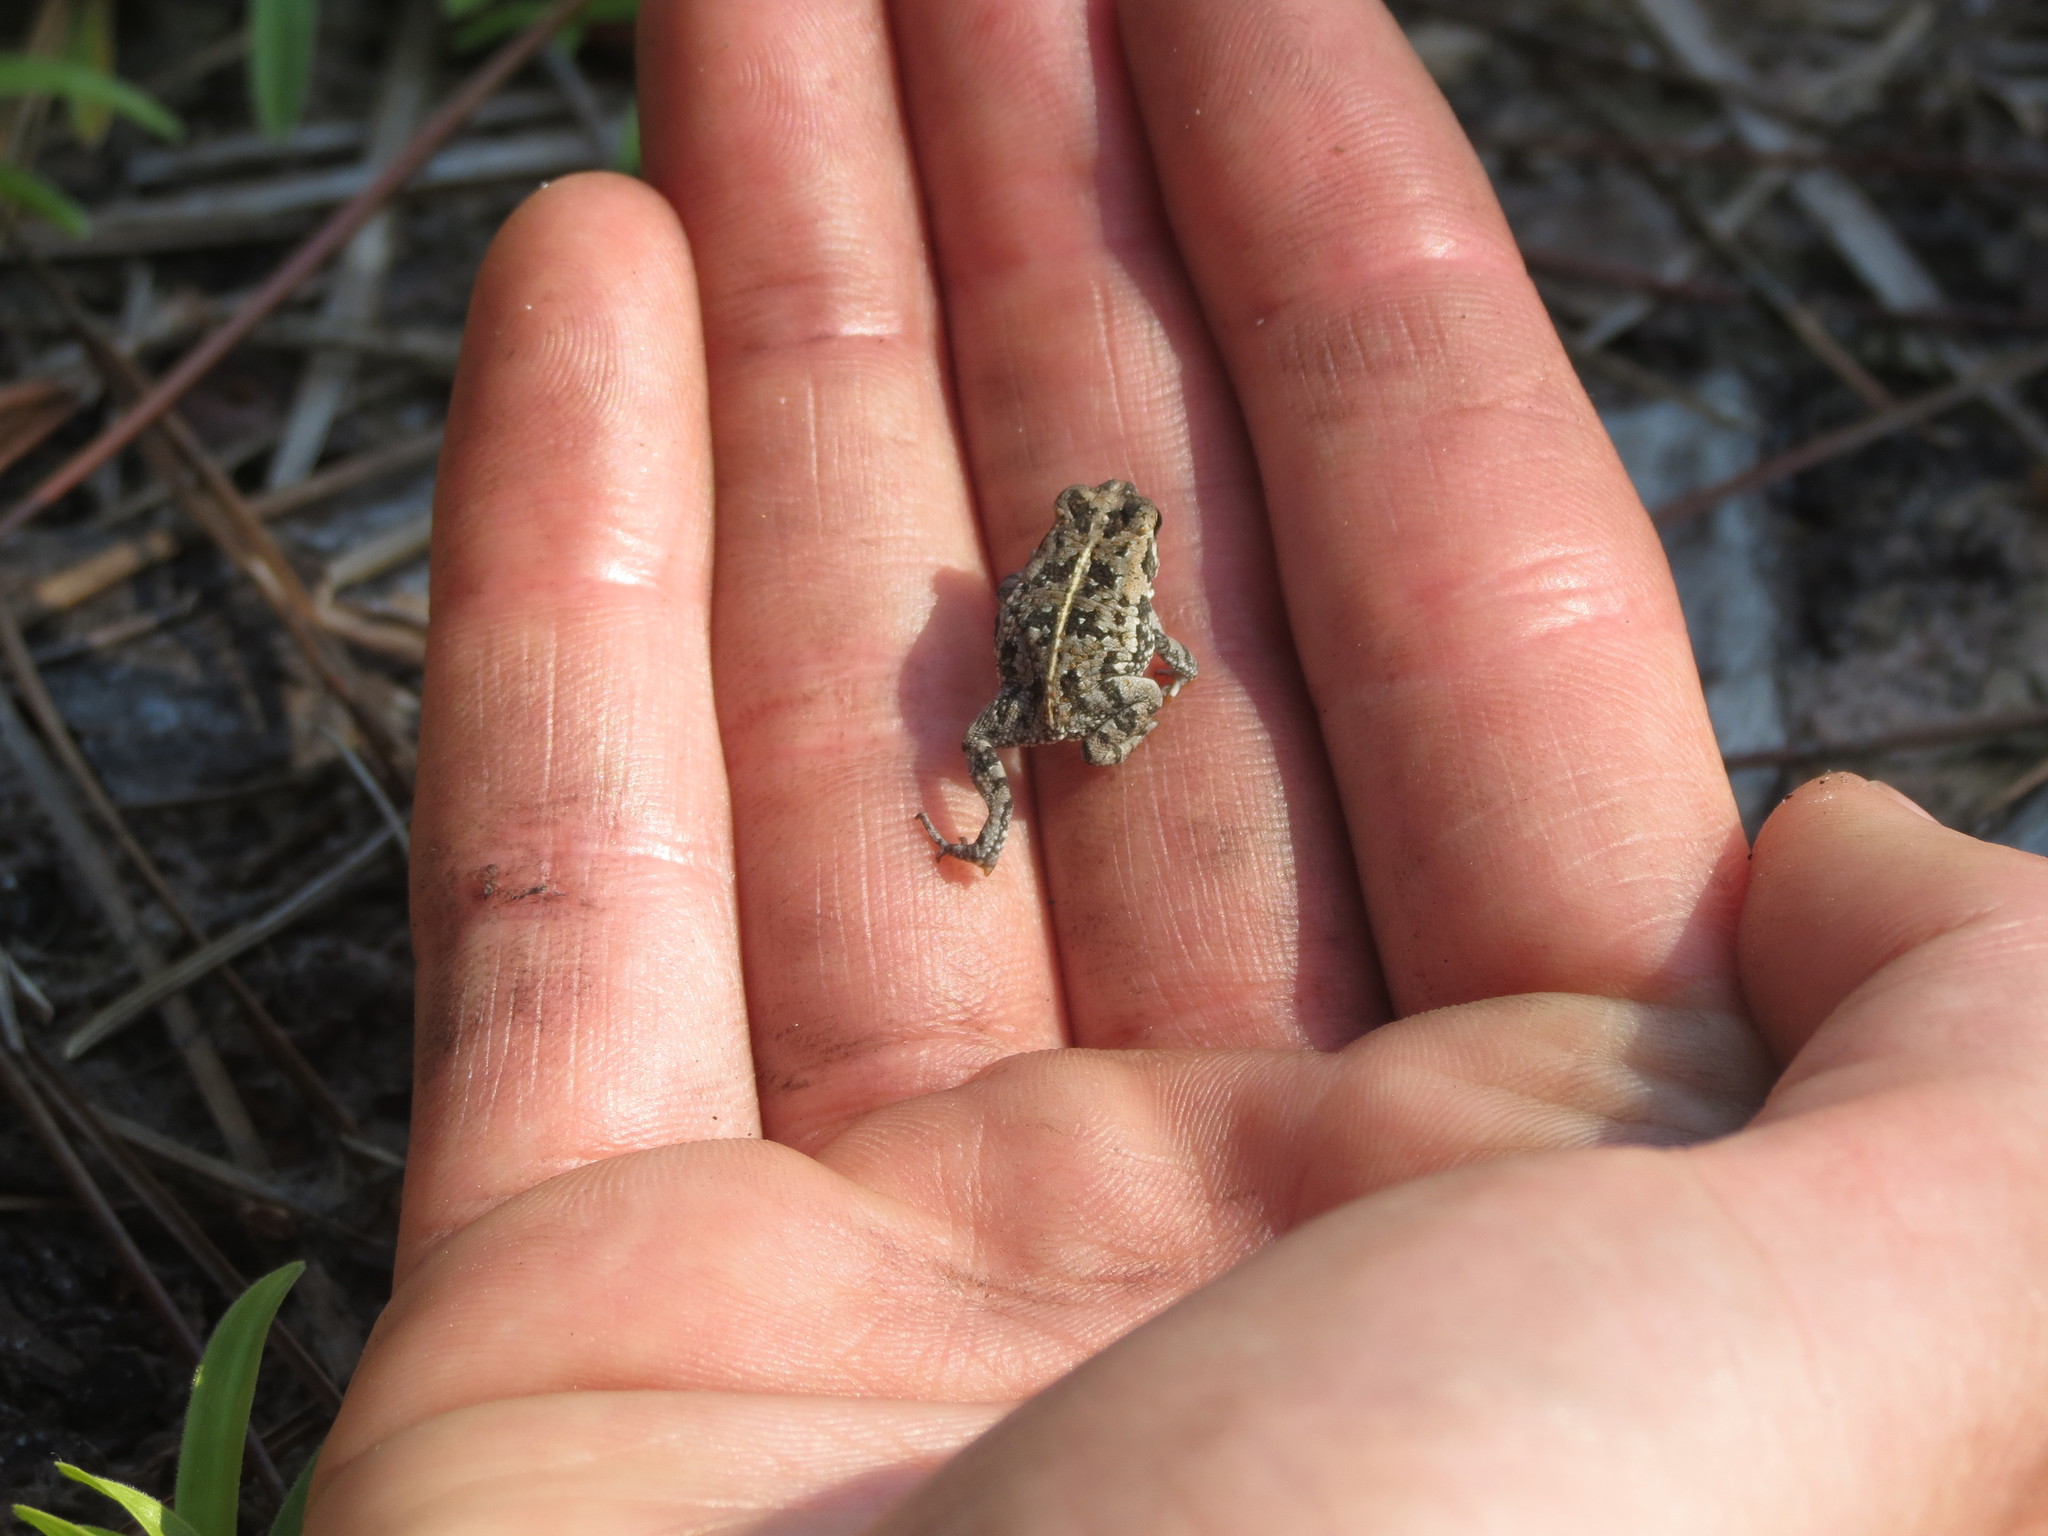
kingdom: Animalia
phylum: Chordata
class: Amphibia
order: Anura
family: Bufonidae
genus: Anaxyrus
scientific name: Anaxyrus quercicus
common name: Oak toad
